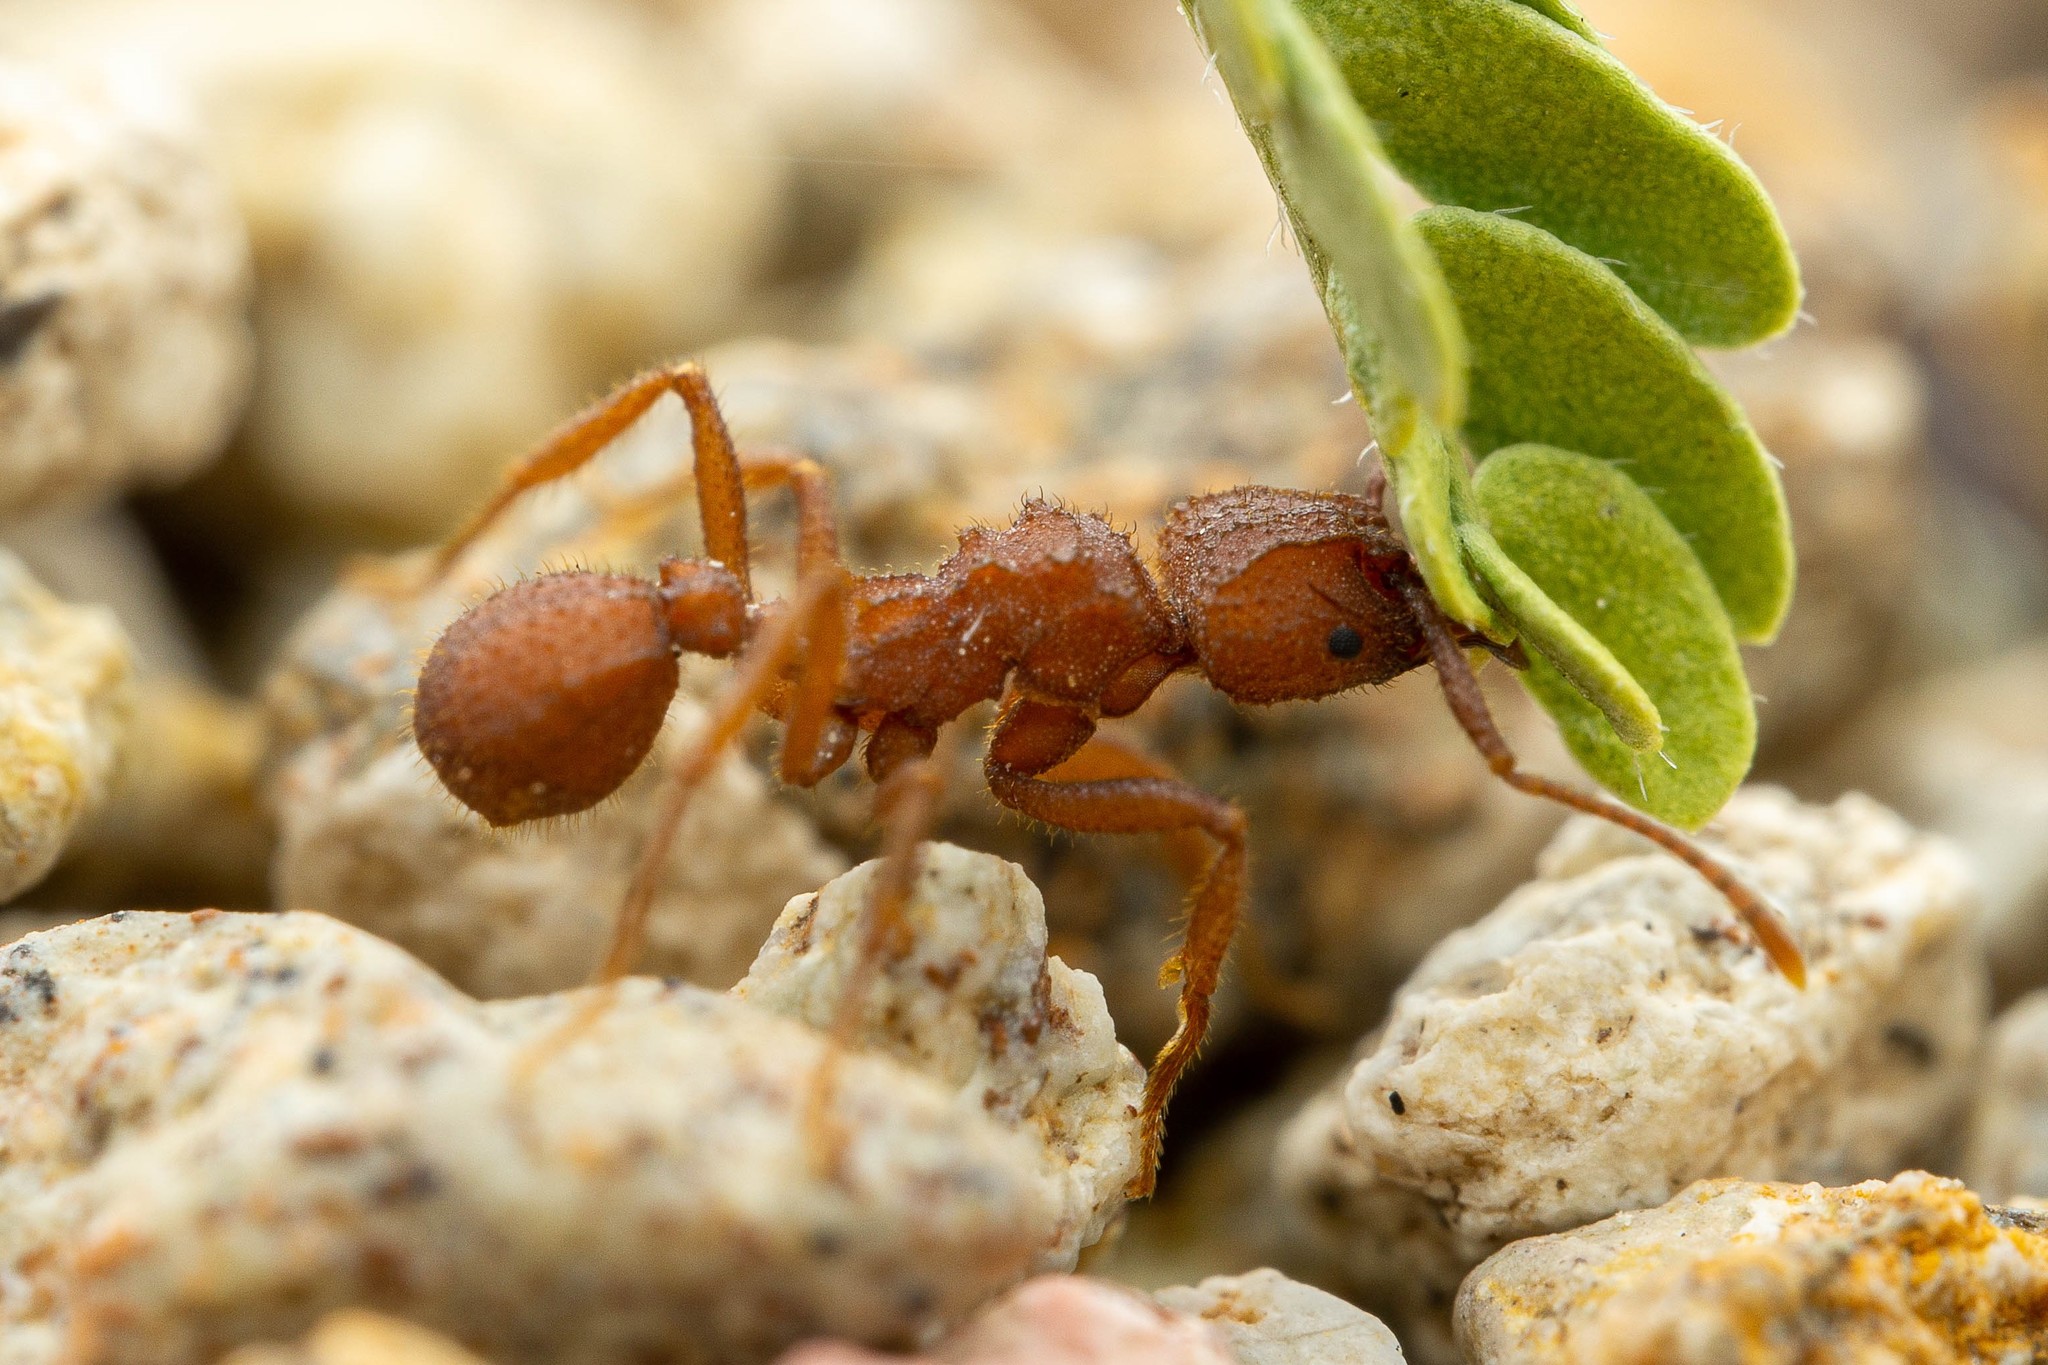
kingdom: Animalia
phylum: Arthropoda
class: Insecta
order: Hymenoptera
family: Formicidae
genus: Trachymyrmex
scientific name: Trachymyrmex desertorum
